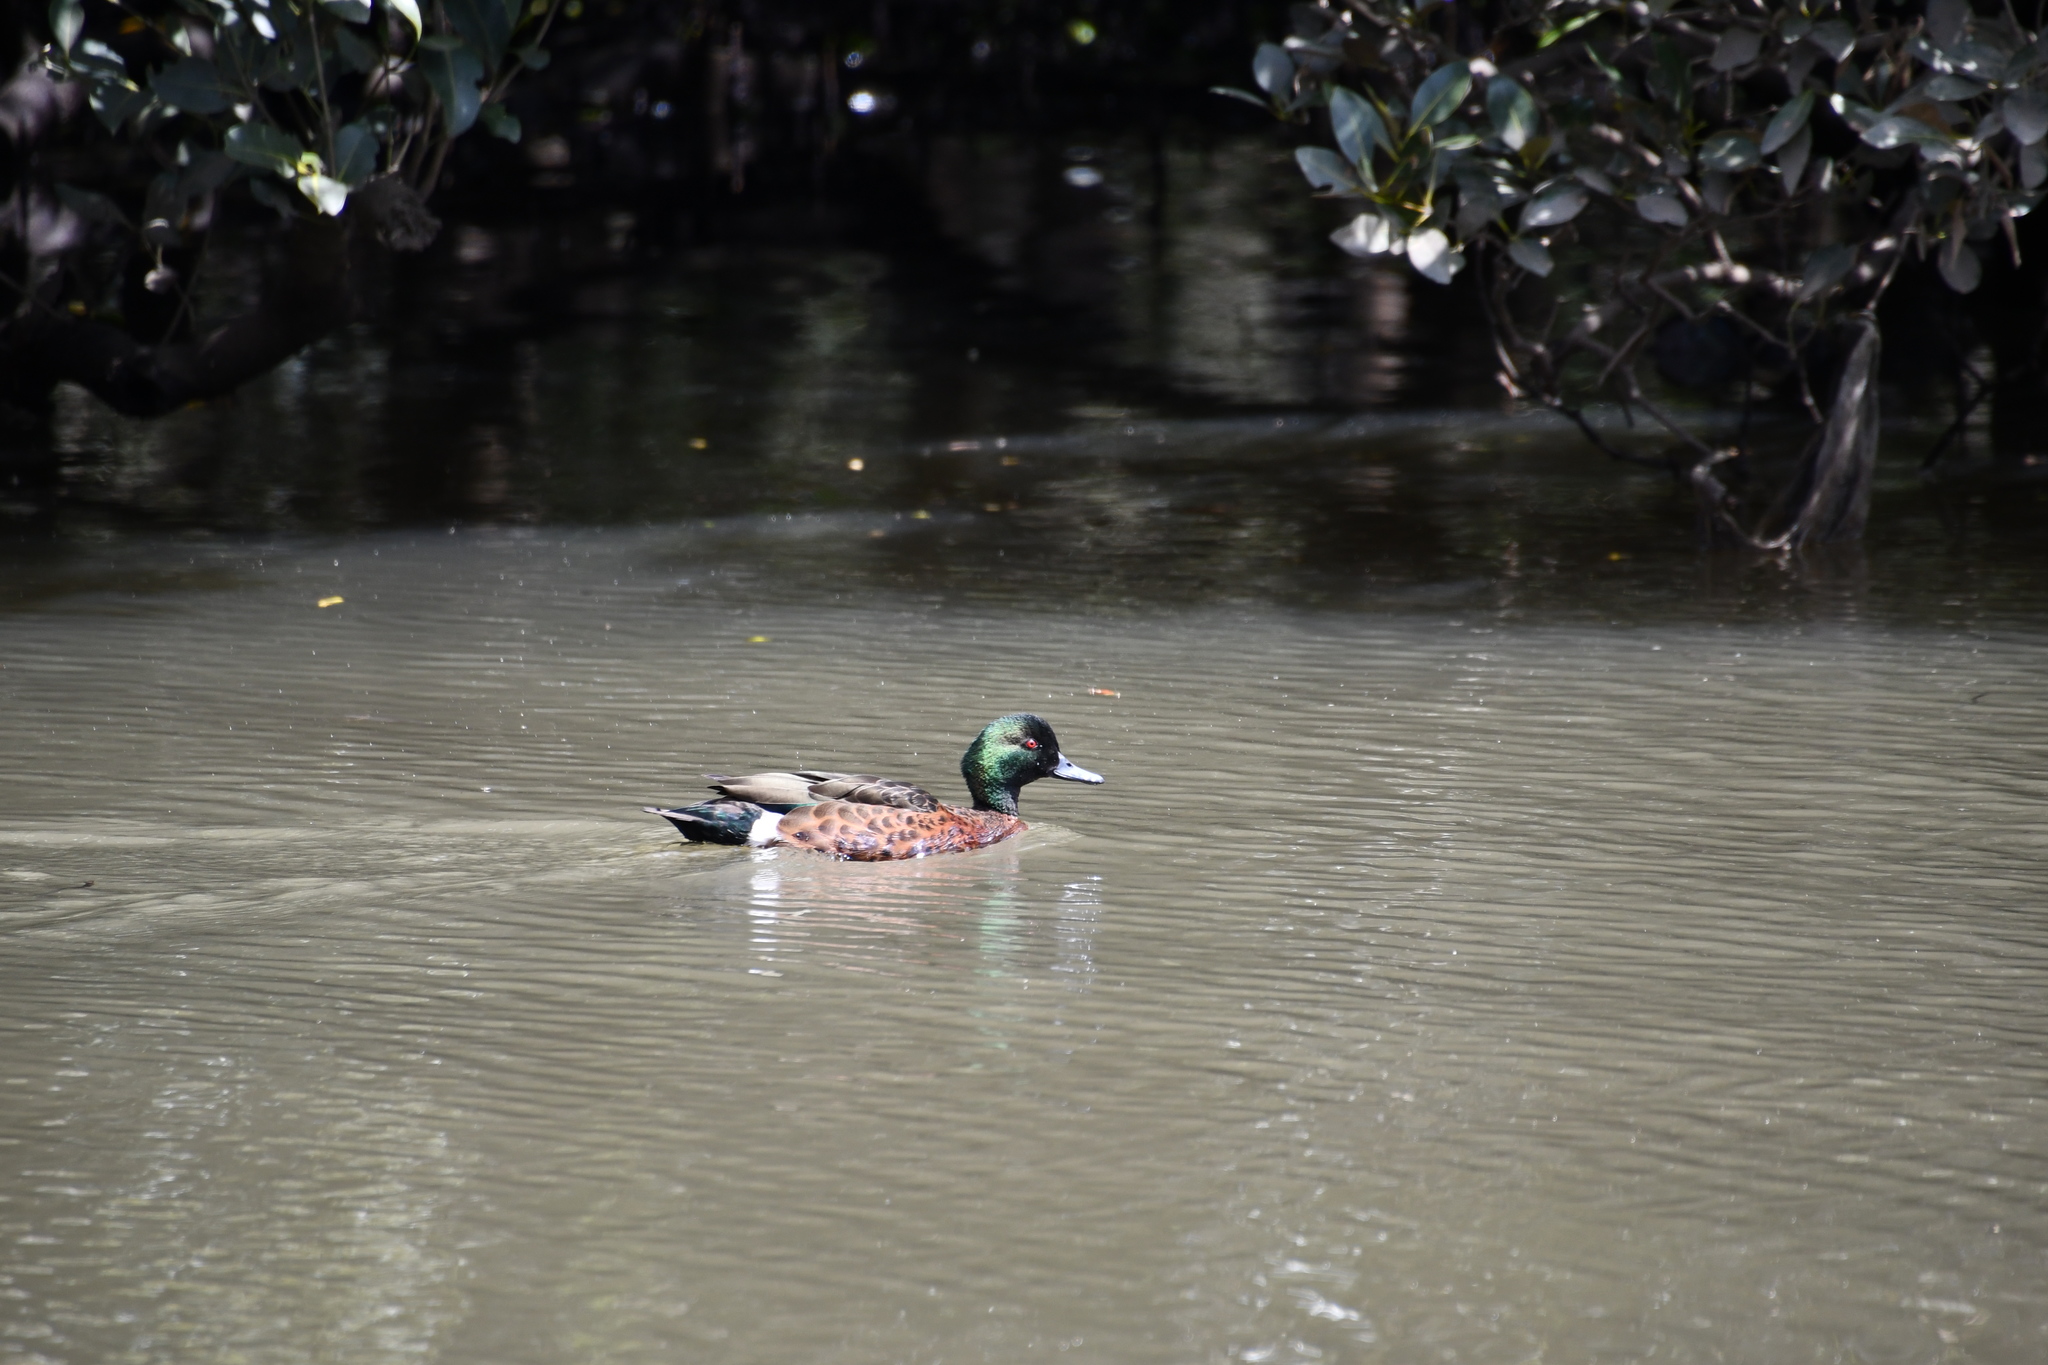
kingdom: Animalia
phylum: Chordata
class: Aves
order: Anseriformes
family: Anatidae
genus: Anas
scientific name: Anas castanea
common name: Chestnut teal
